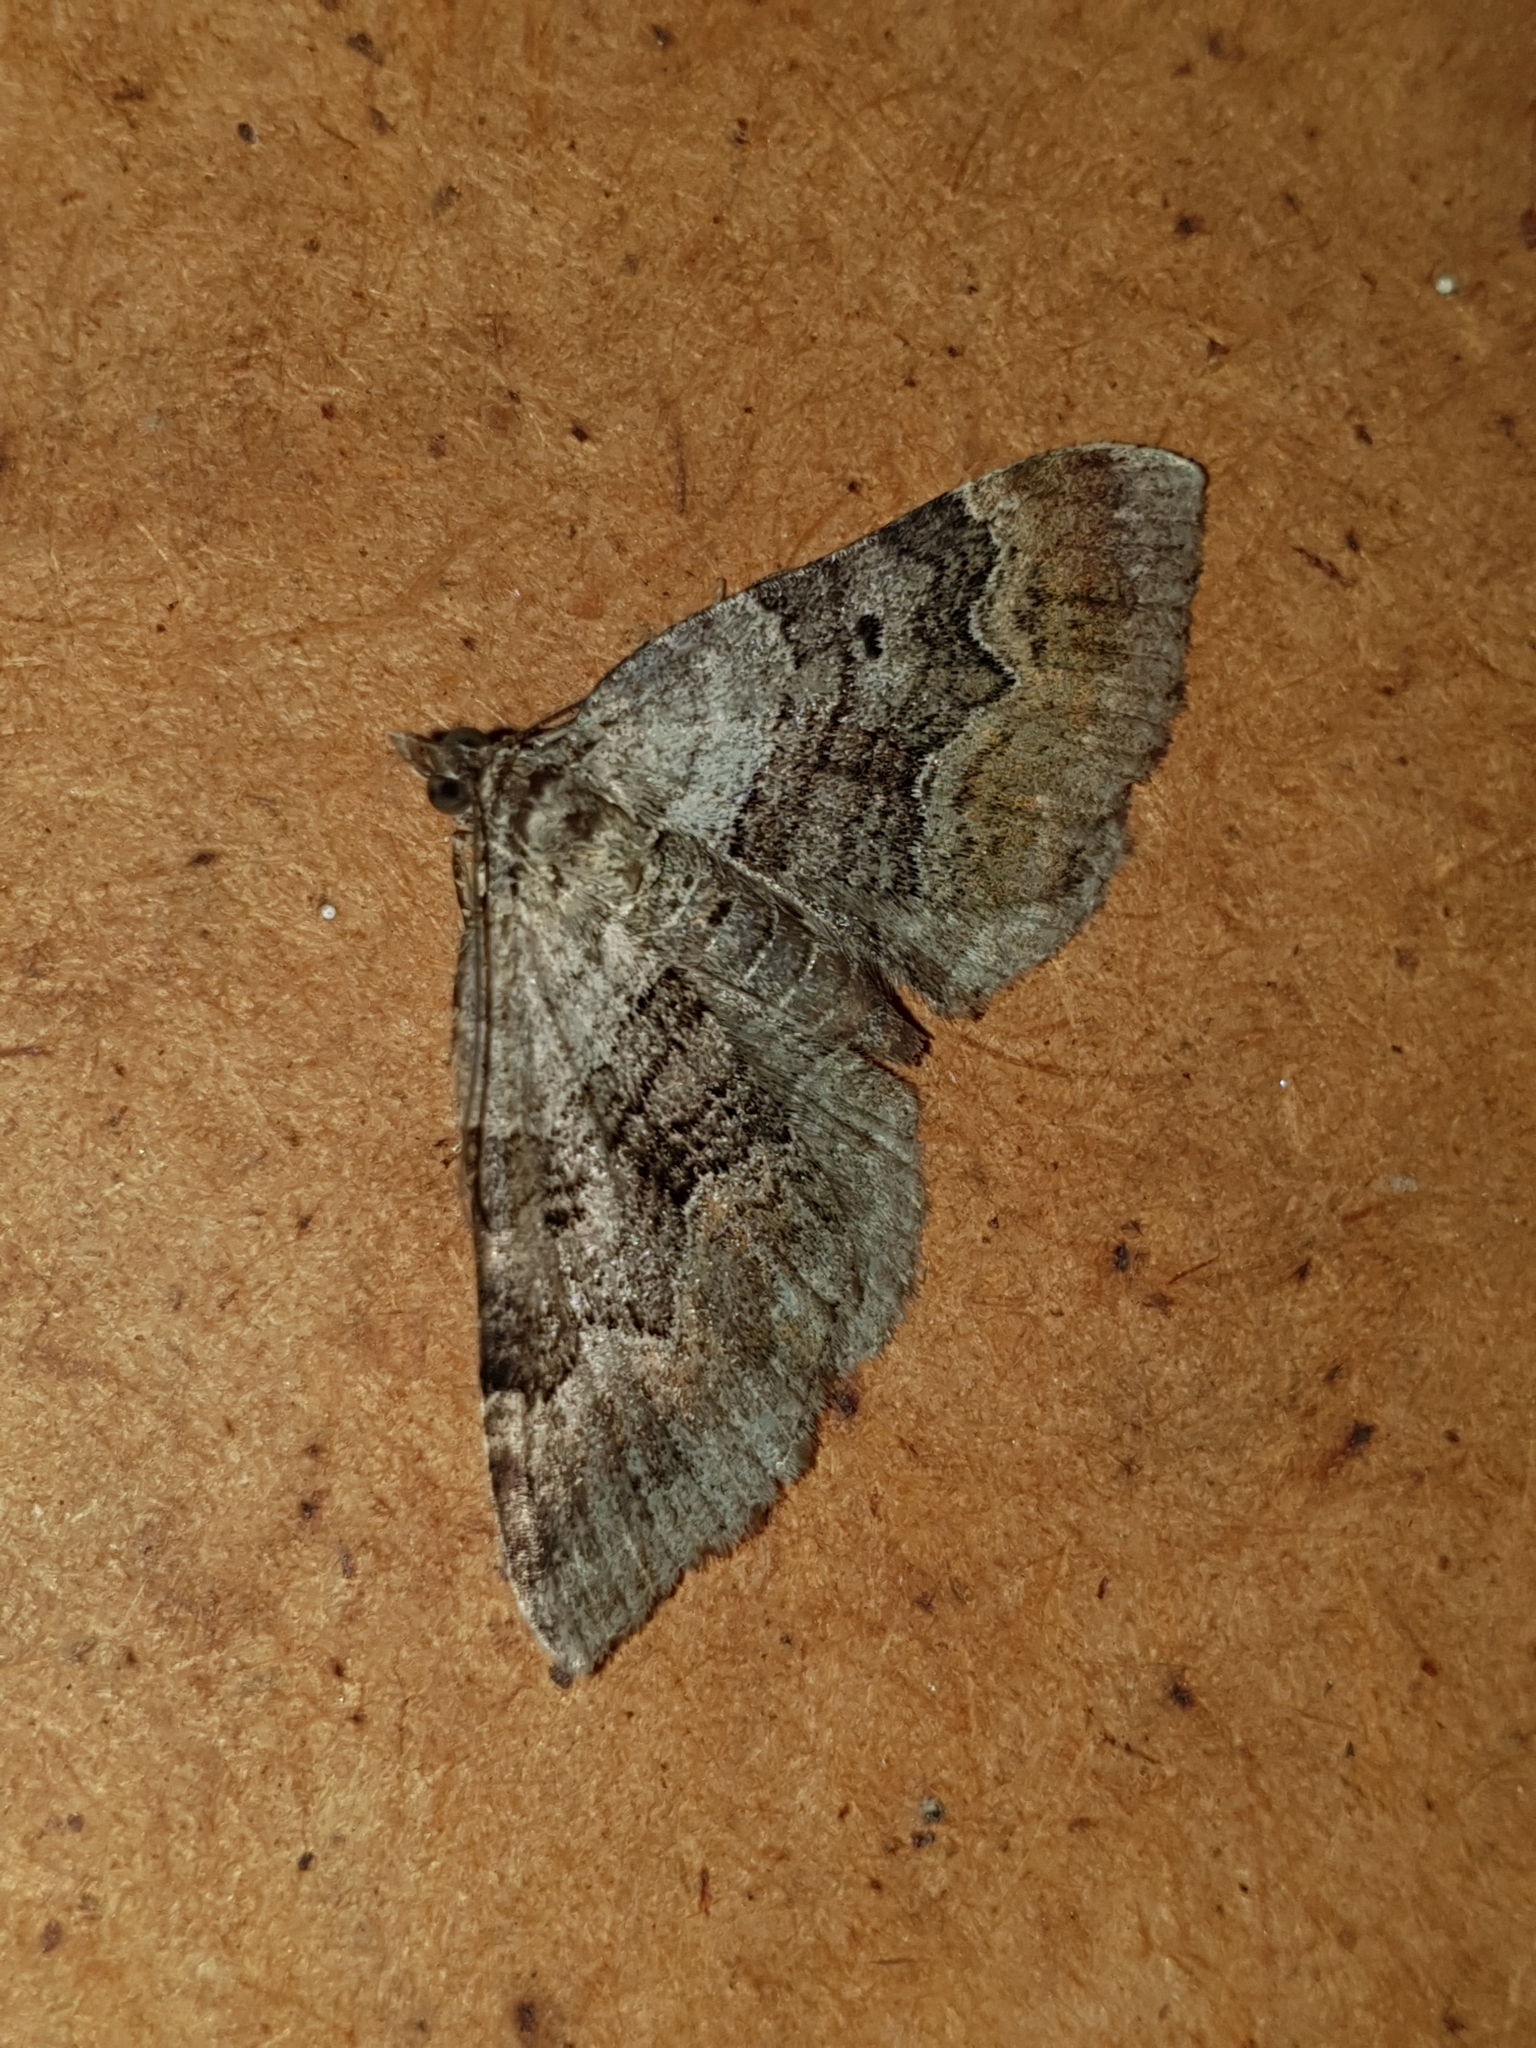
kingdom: Animalia
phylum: Arthropoda
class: Insecta
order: Lepidoptera
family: Geometridae
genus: Xanthorhoe
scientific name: Xanthorhoe quadrifasiata
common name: Large twin-spot carpet
